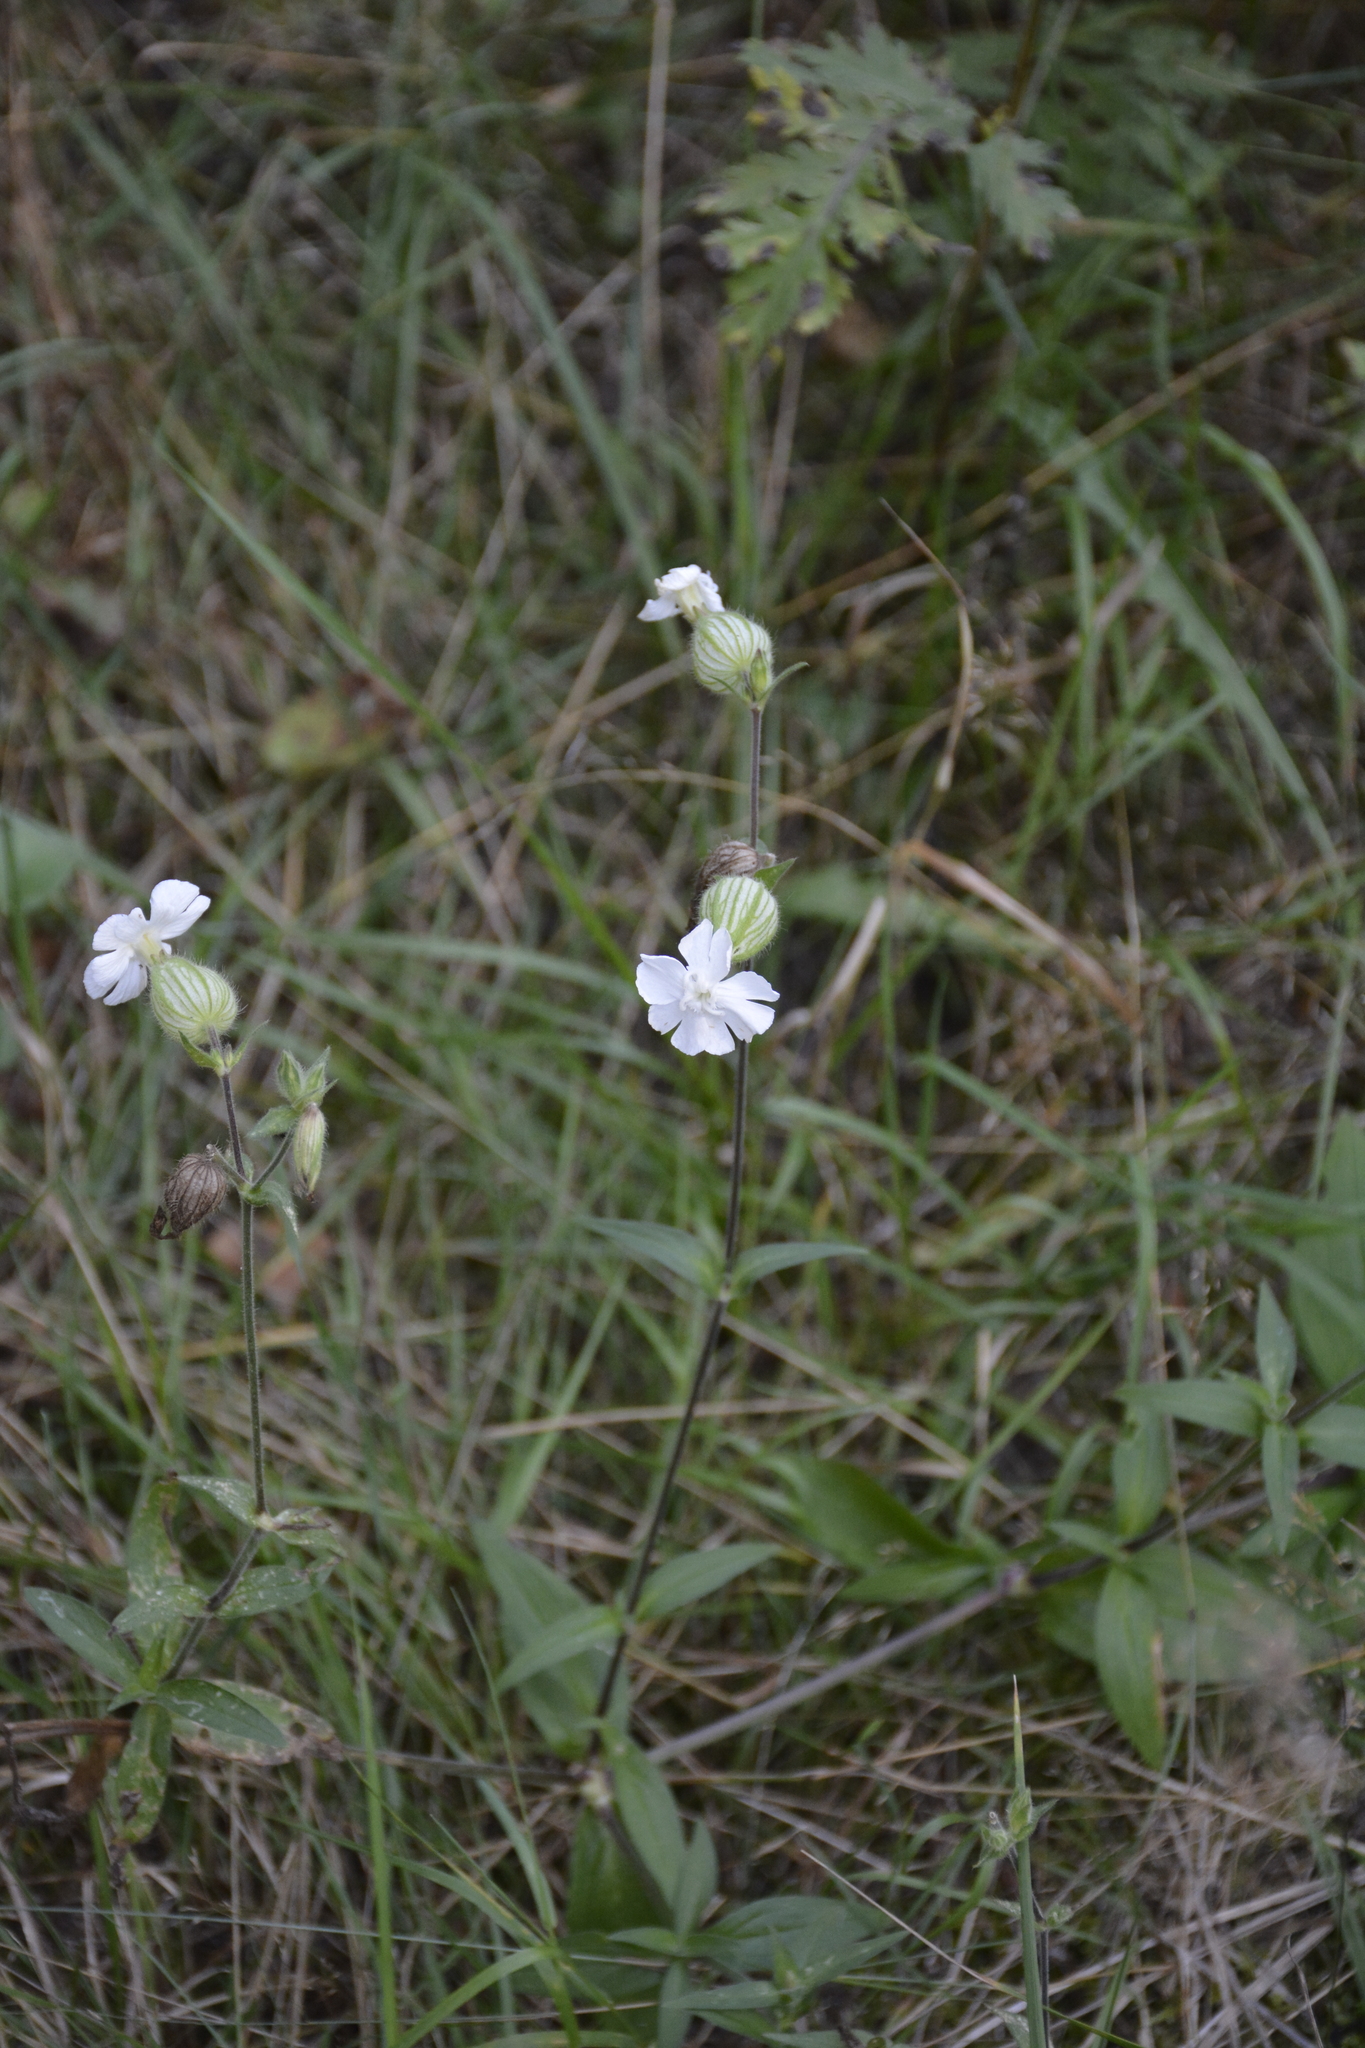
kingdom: Plantae
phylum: Tracheophyta
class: Magnoliopsida
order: Caryophyllales
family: Caryophyllaceae
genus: Silene
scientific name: Silene latifolia
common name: White campion
